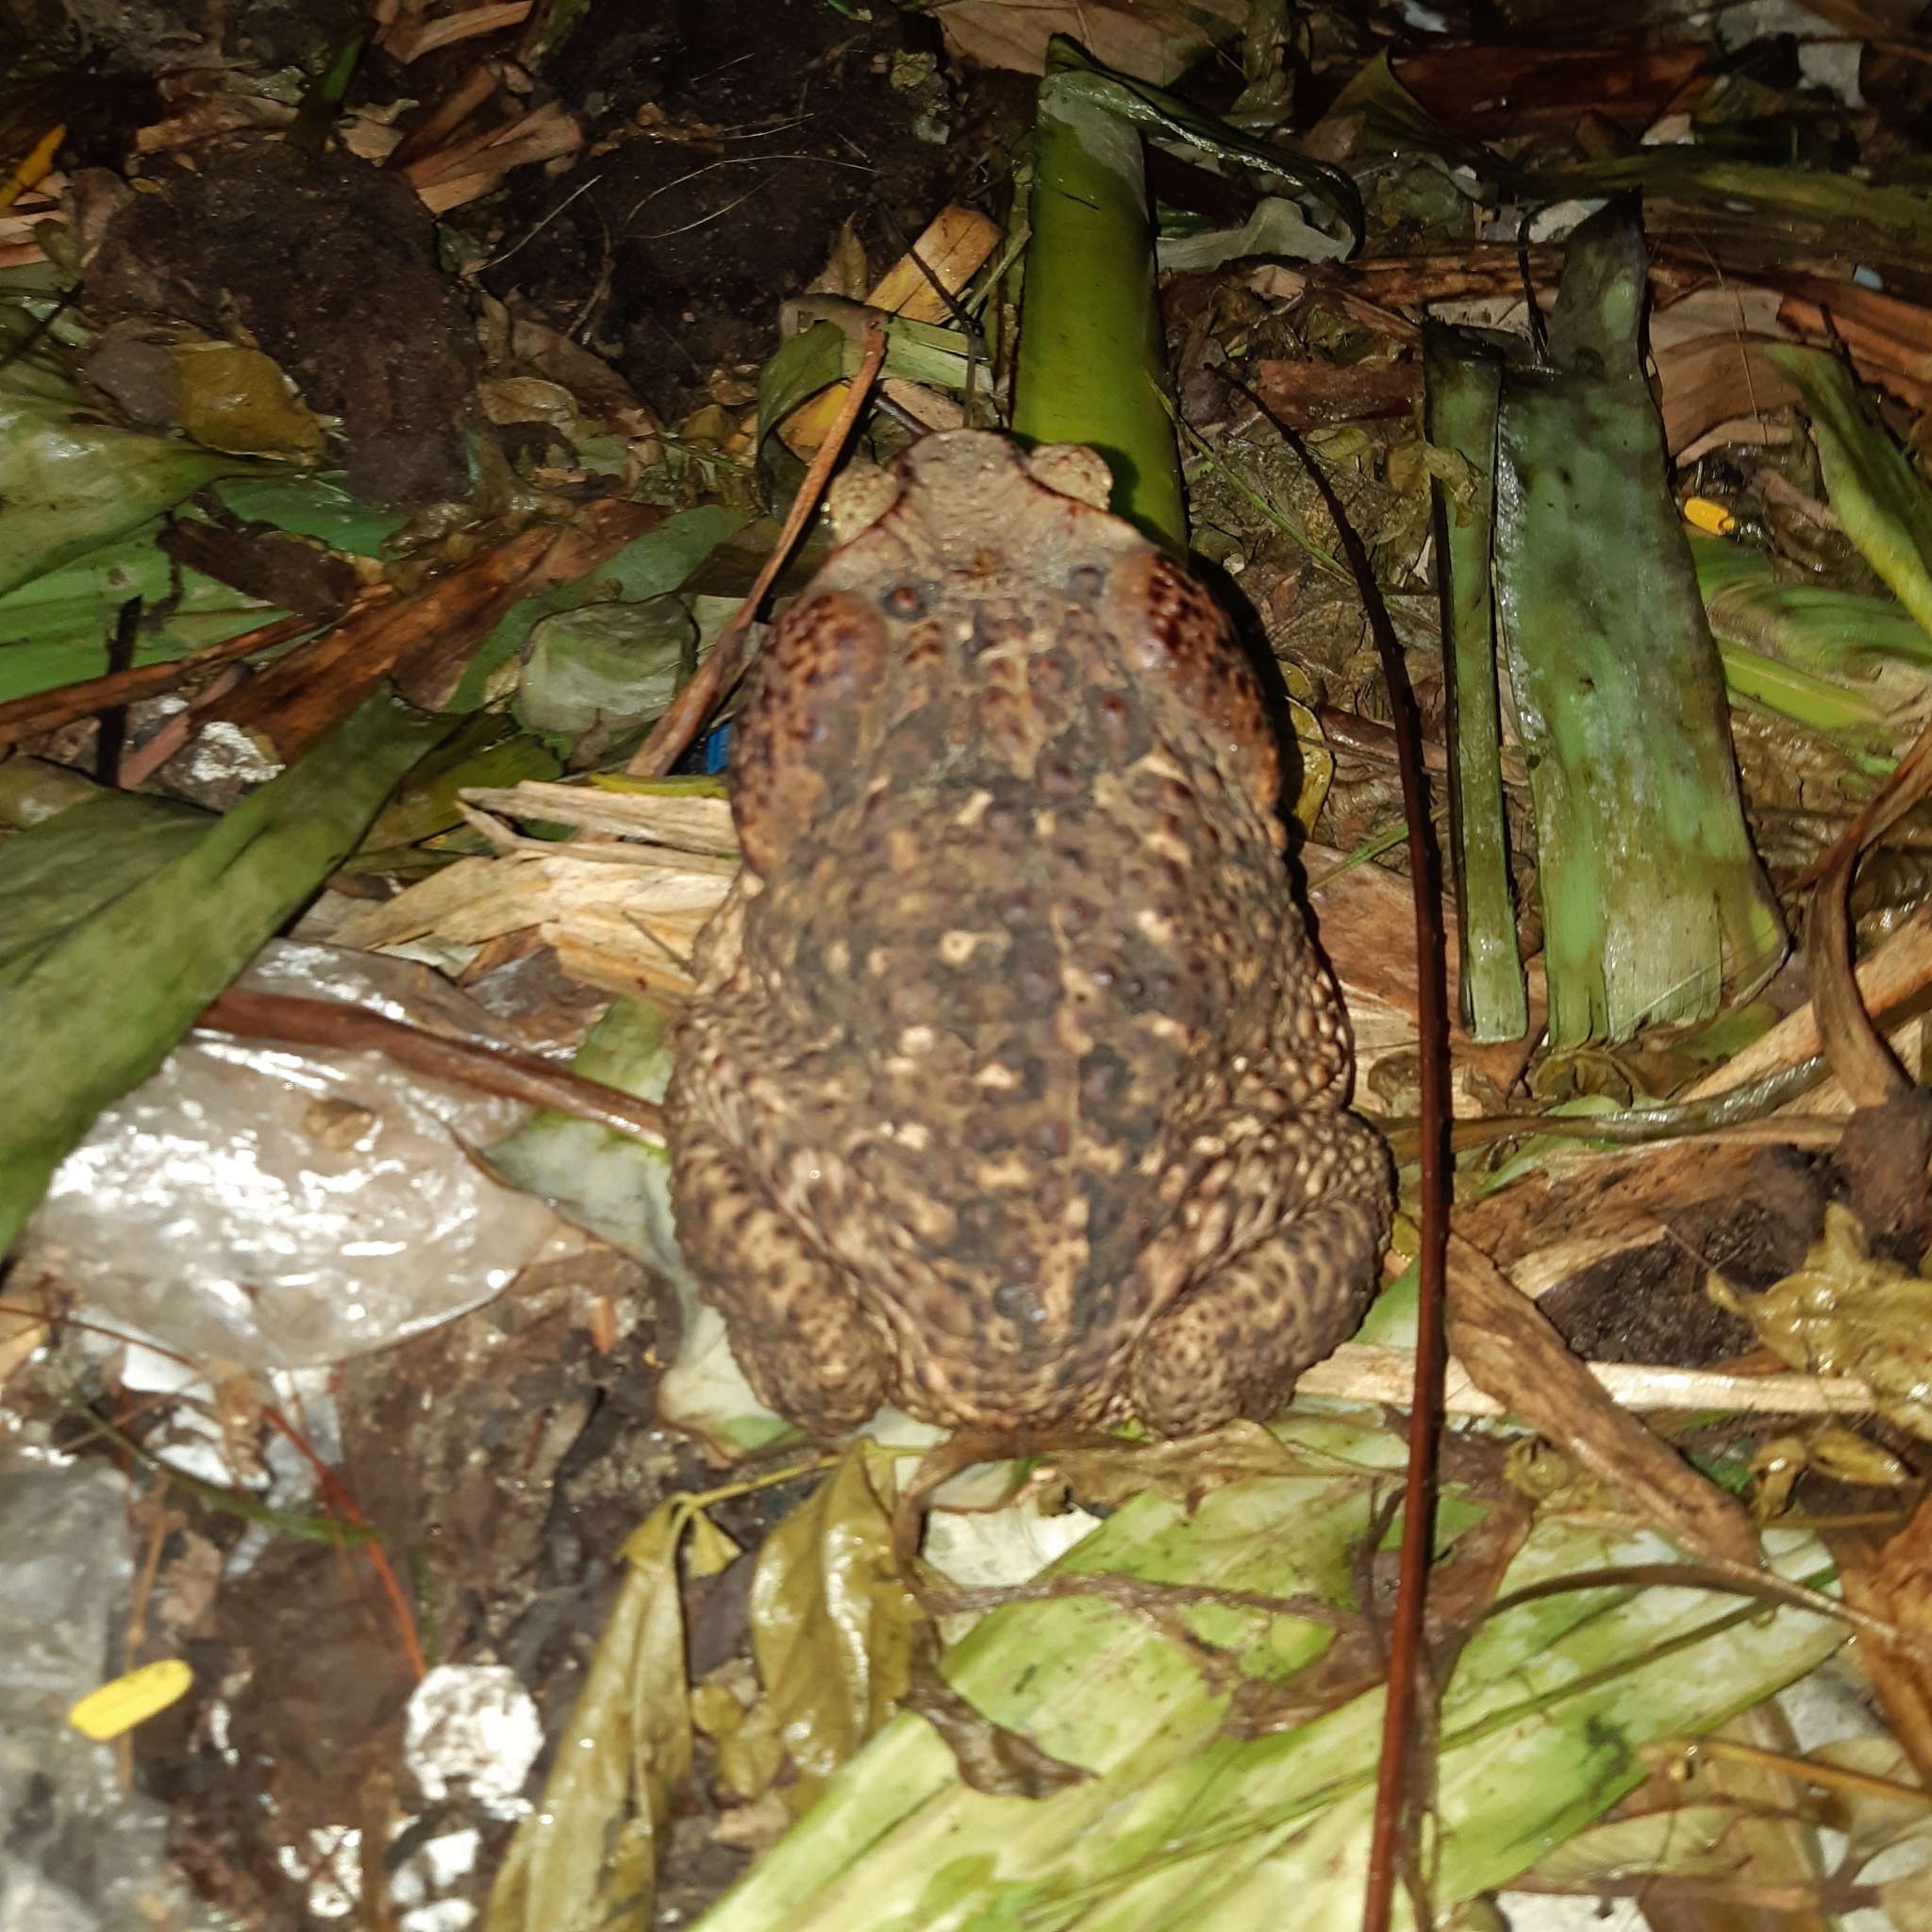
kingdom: Animalia
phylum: Chordata
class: Amphibia
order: Anura
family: Bufonidae
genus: Rhinella
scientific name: Rhinella horribilis
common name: Mesoamerican cane toad
